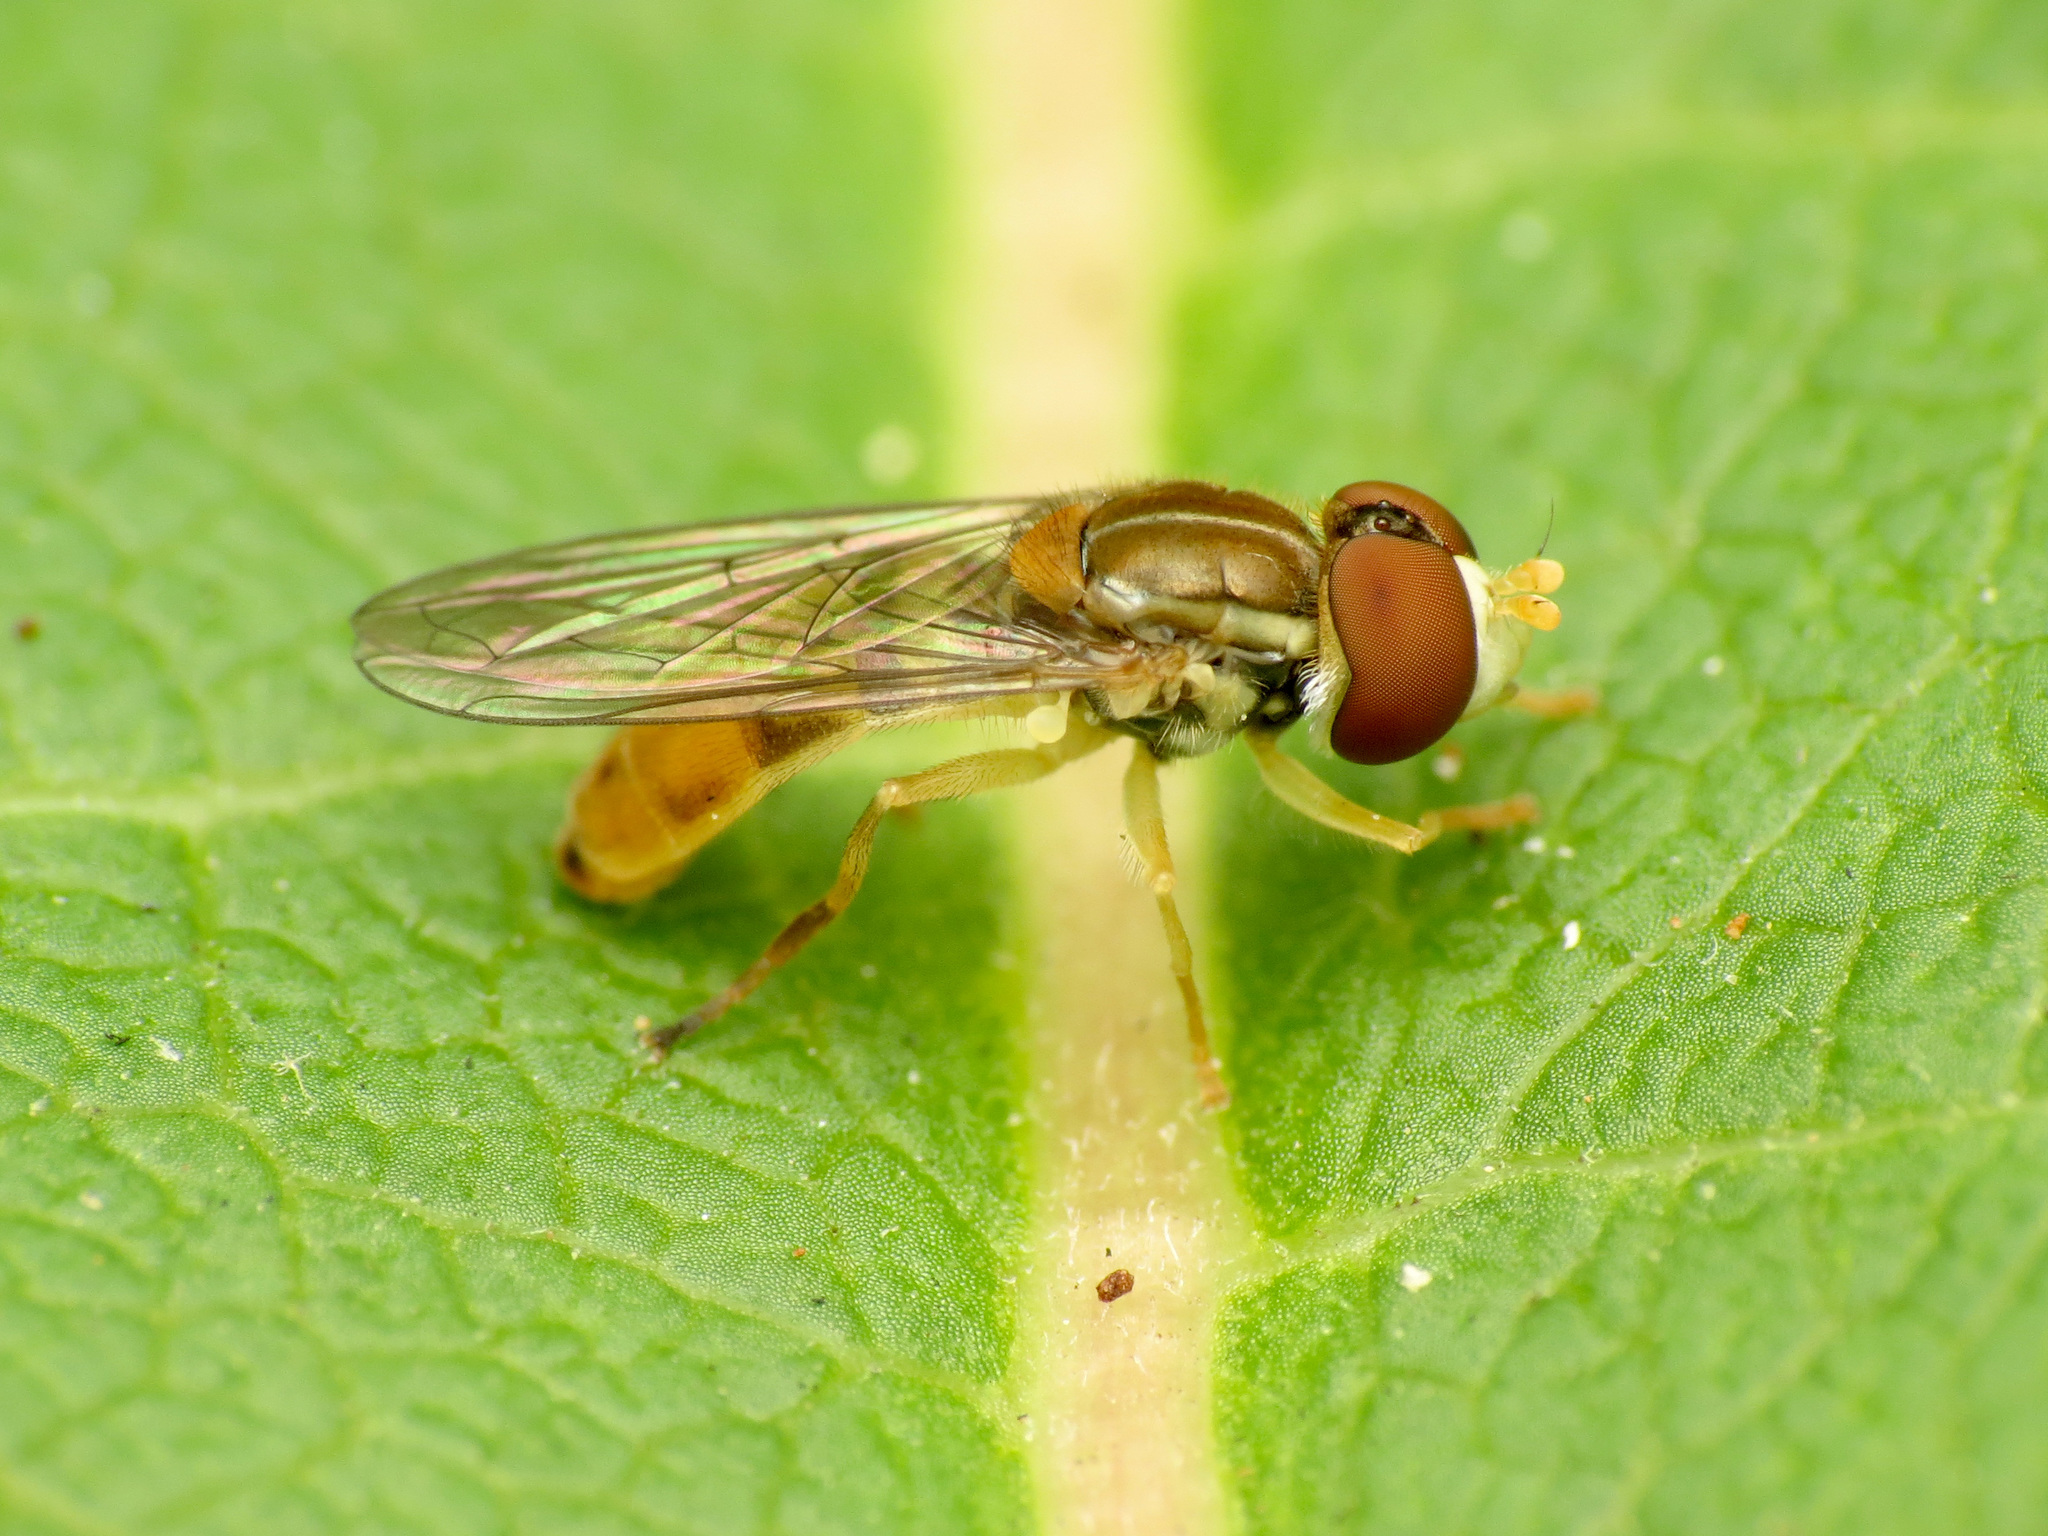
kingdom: Animalia
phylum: Arthropoda
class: Insecta
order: Diptera
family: Syrphidae
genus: Toxomerus
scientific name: Toxomerus marginatus
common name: Syrphid fly
